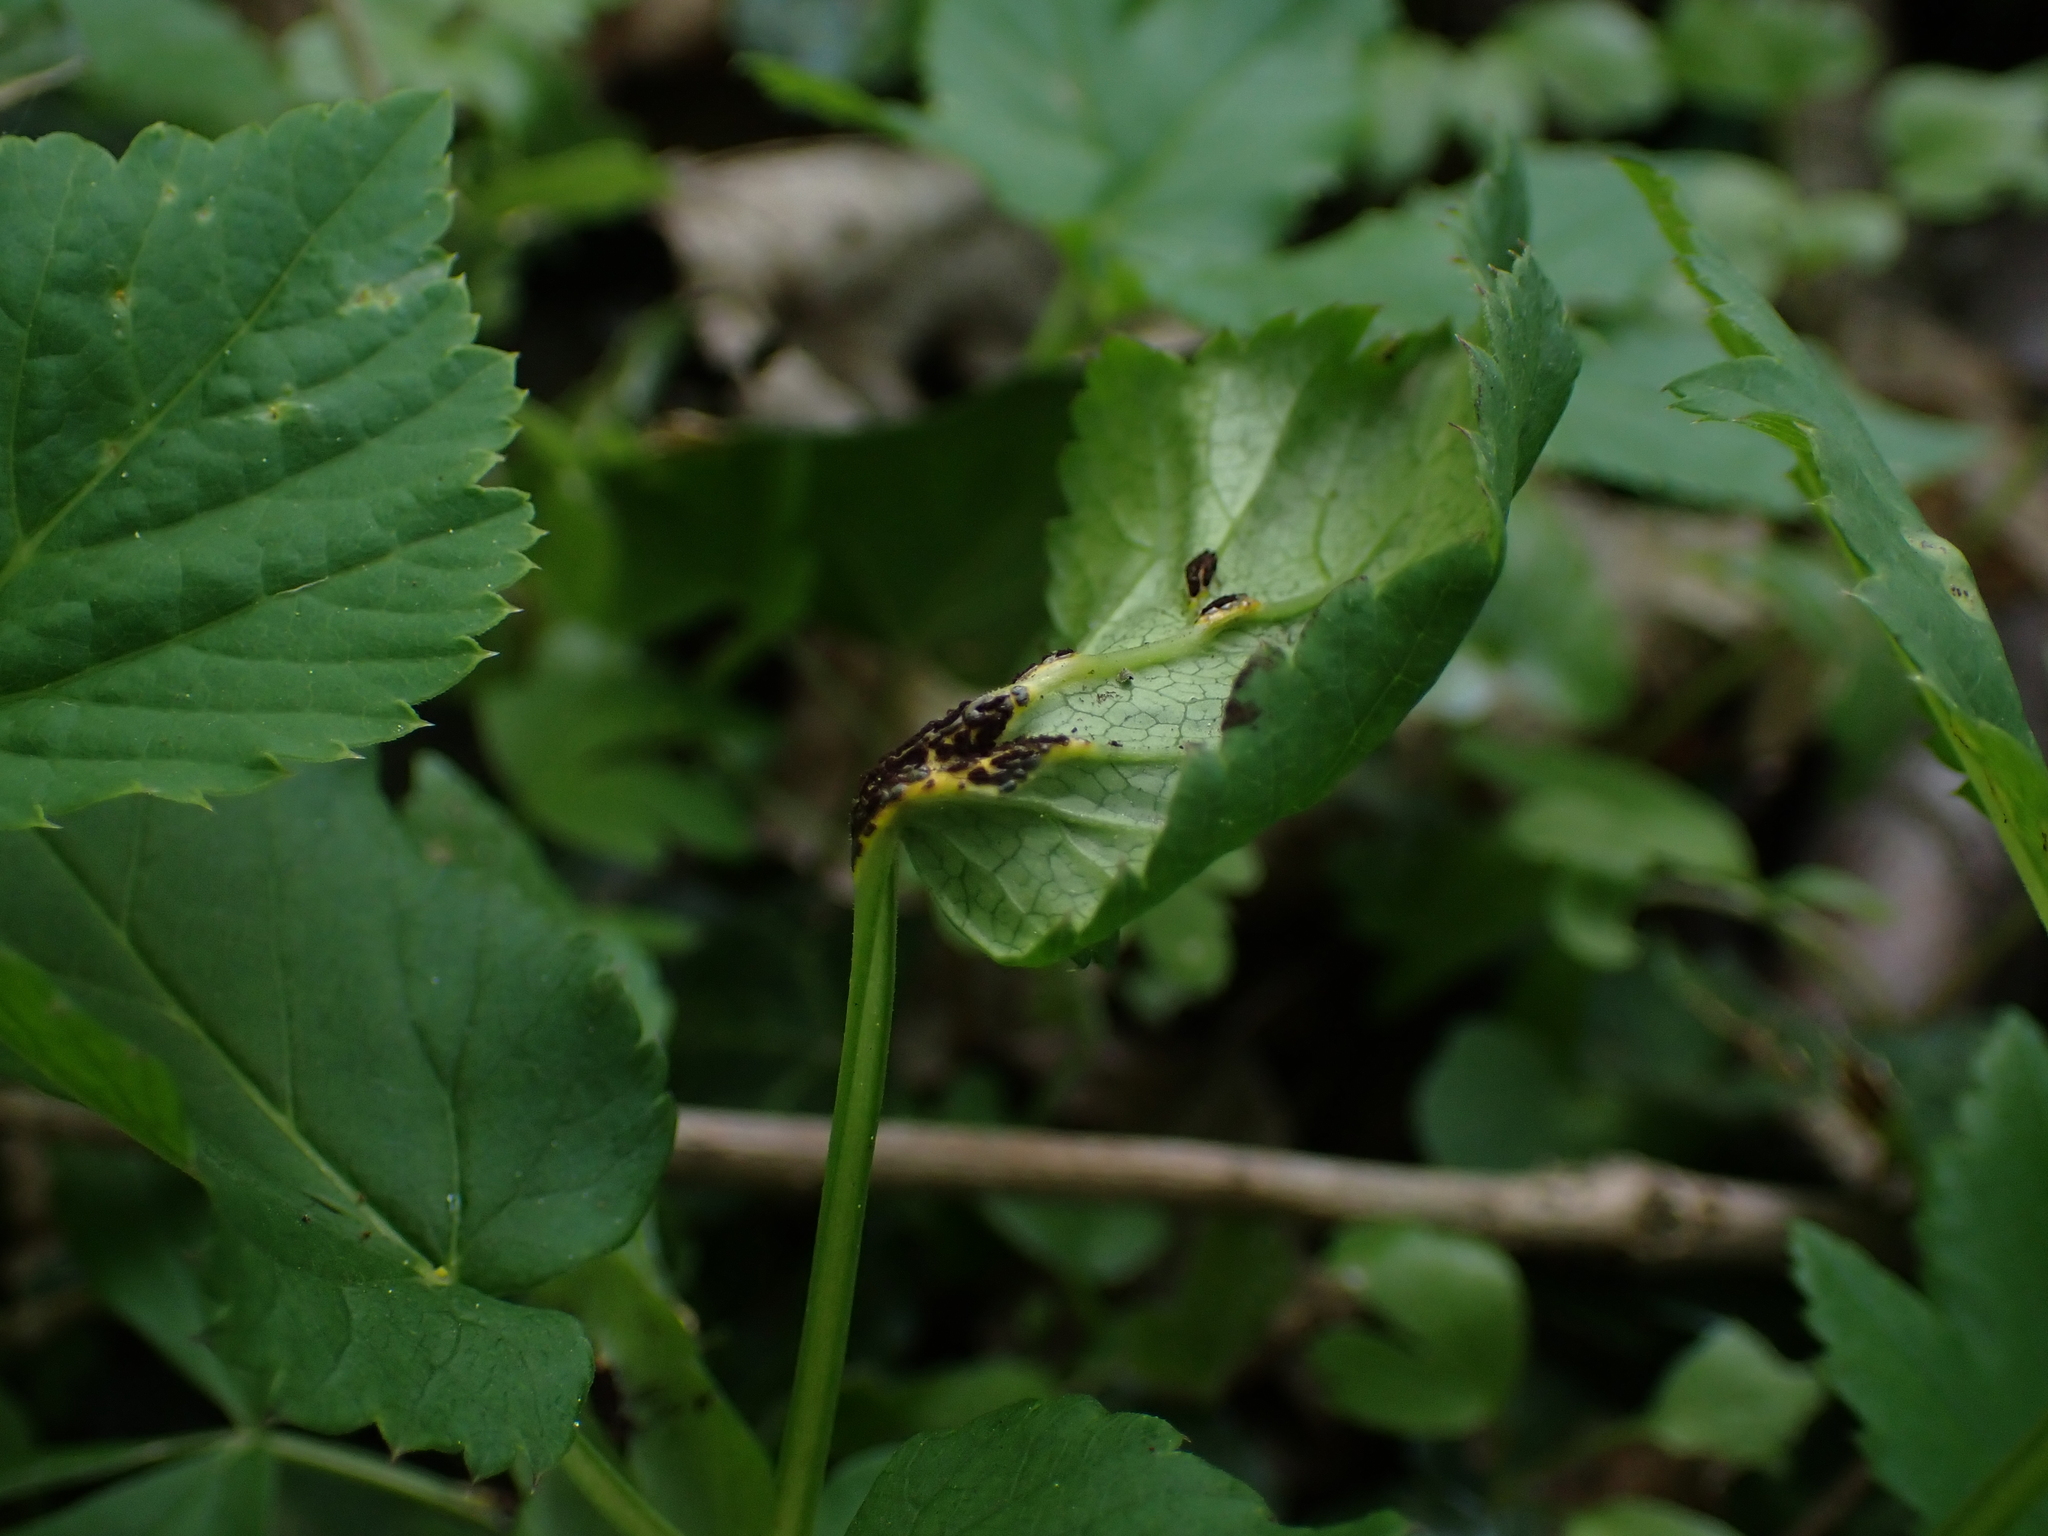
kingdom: Fungi
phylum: Basidiomycota
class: Pucciniomycetes
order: Pucciniales
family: Pucciniaceae
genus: Puccinia
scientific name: Puccinia aegopodii
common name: Ground elder rust
